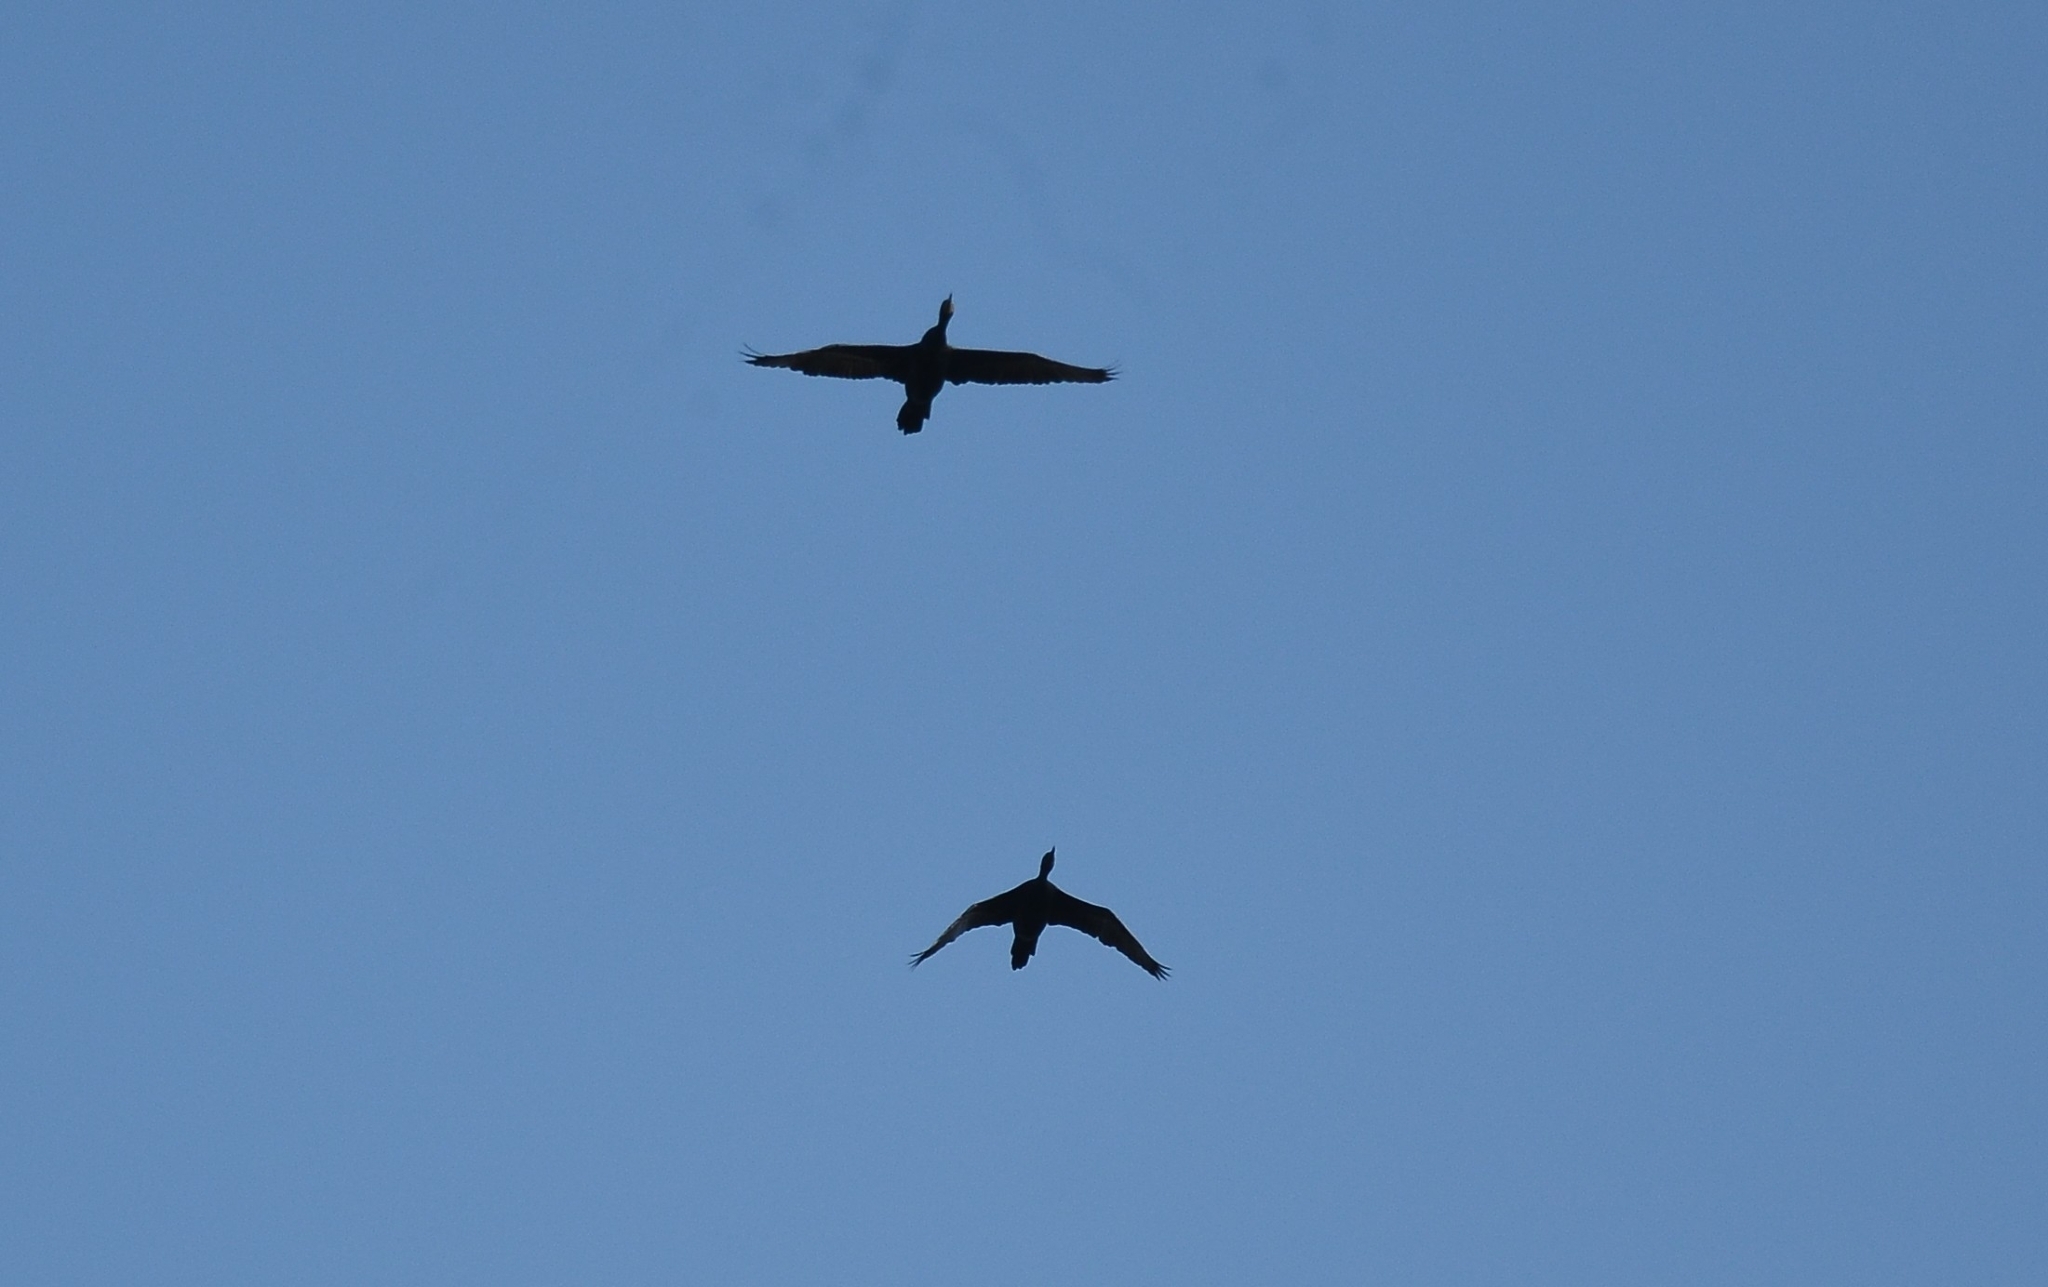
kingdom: Animalia
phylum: Chordata
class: Aves
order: Suliformes
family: Phalacrocoracidae
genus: Phalacrocorax
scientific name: Phalacrocorax fuscicollis
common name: Indian cormorant
